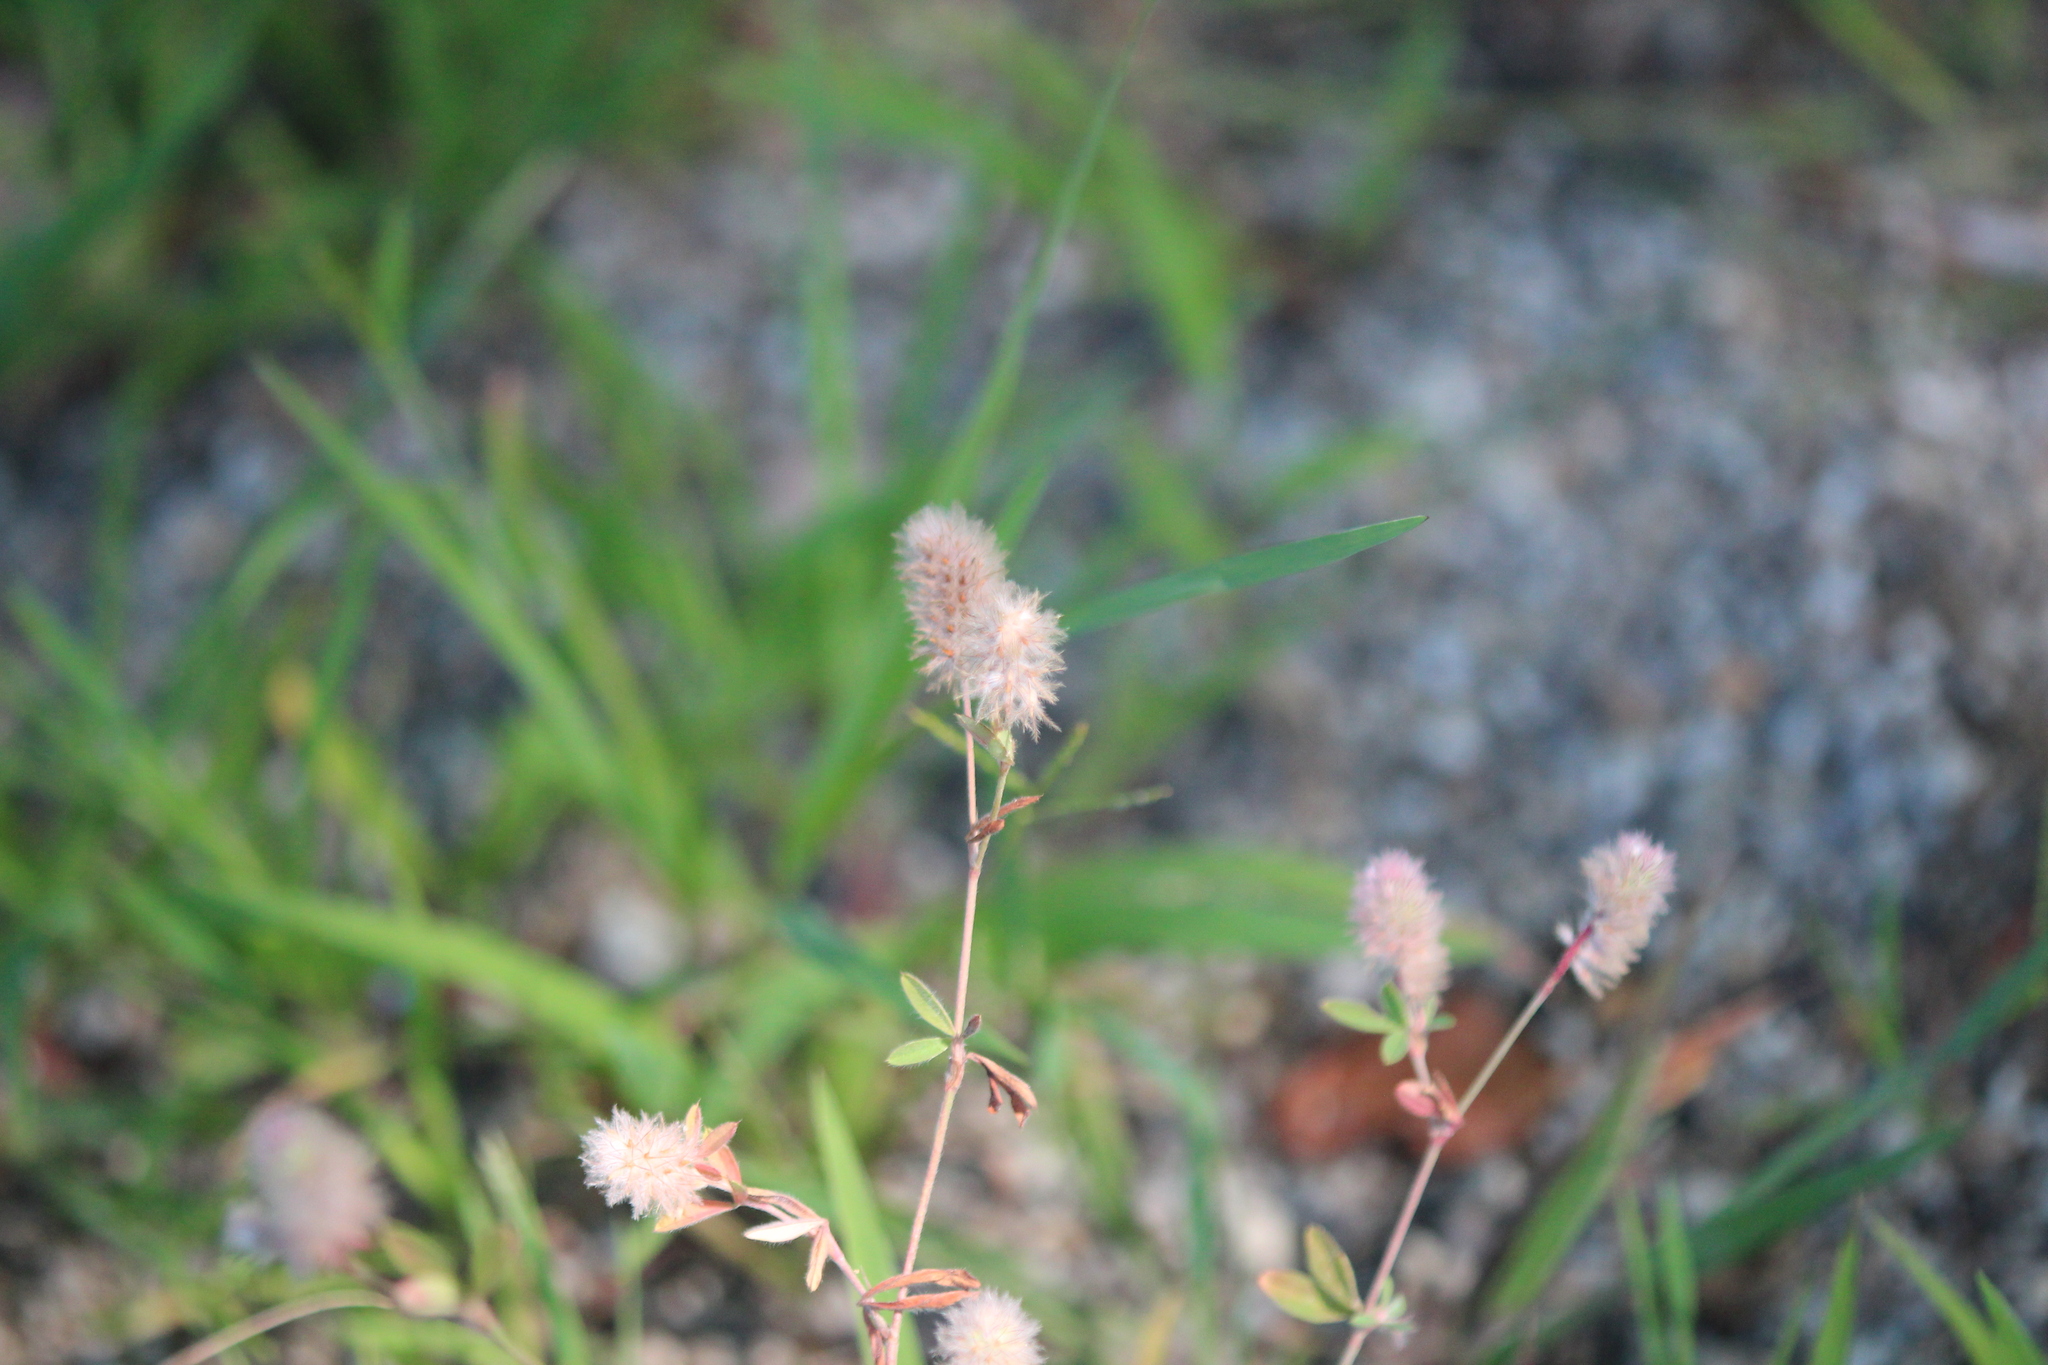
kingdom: Plantae
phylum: Tracheophyta
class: Magnoliopsida
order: Fabales
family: Fabaceae
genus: Trifolium
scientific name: Trifolium arvense
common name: Hare's-foot clover
